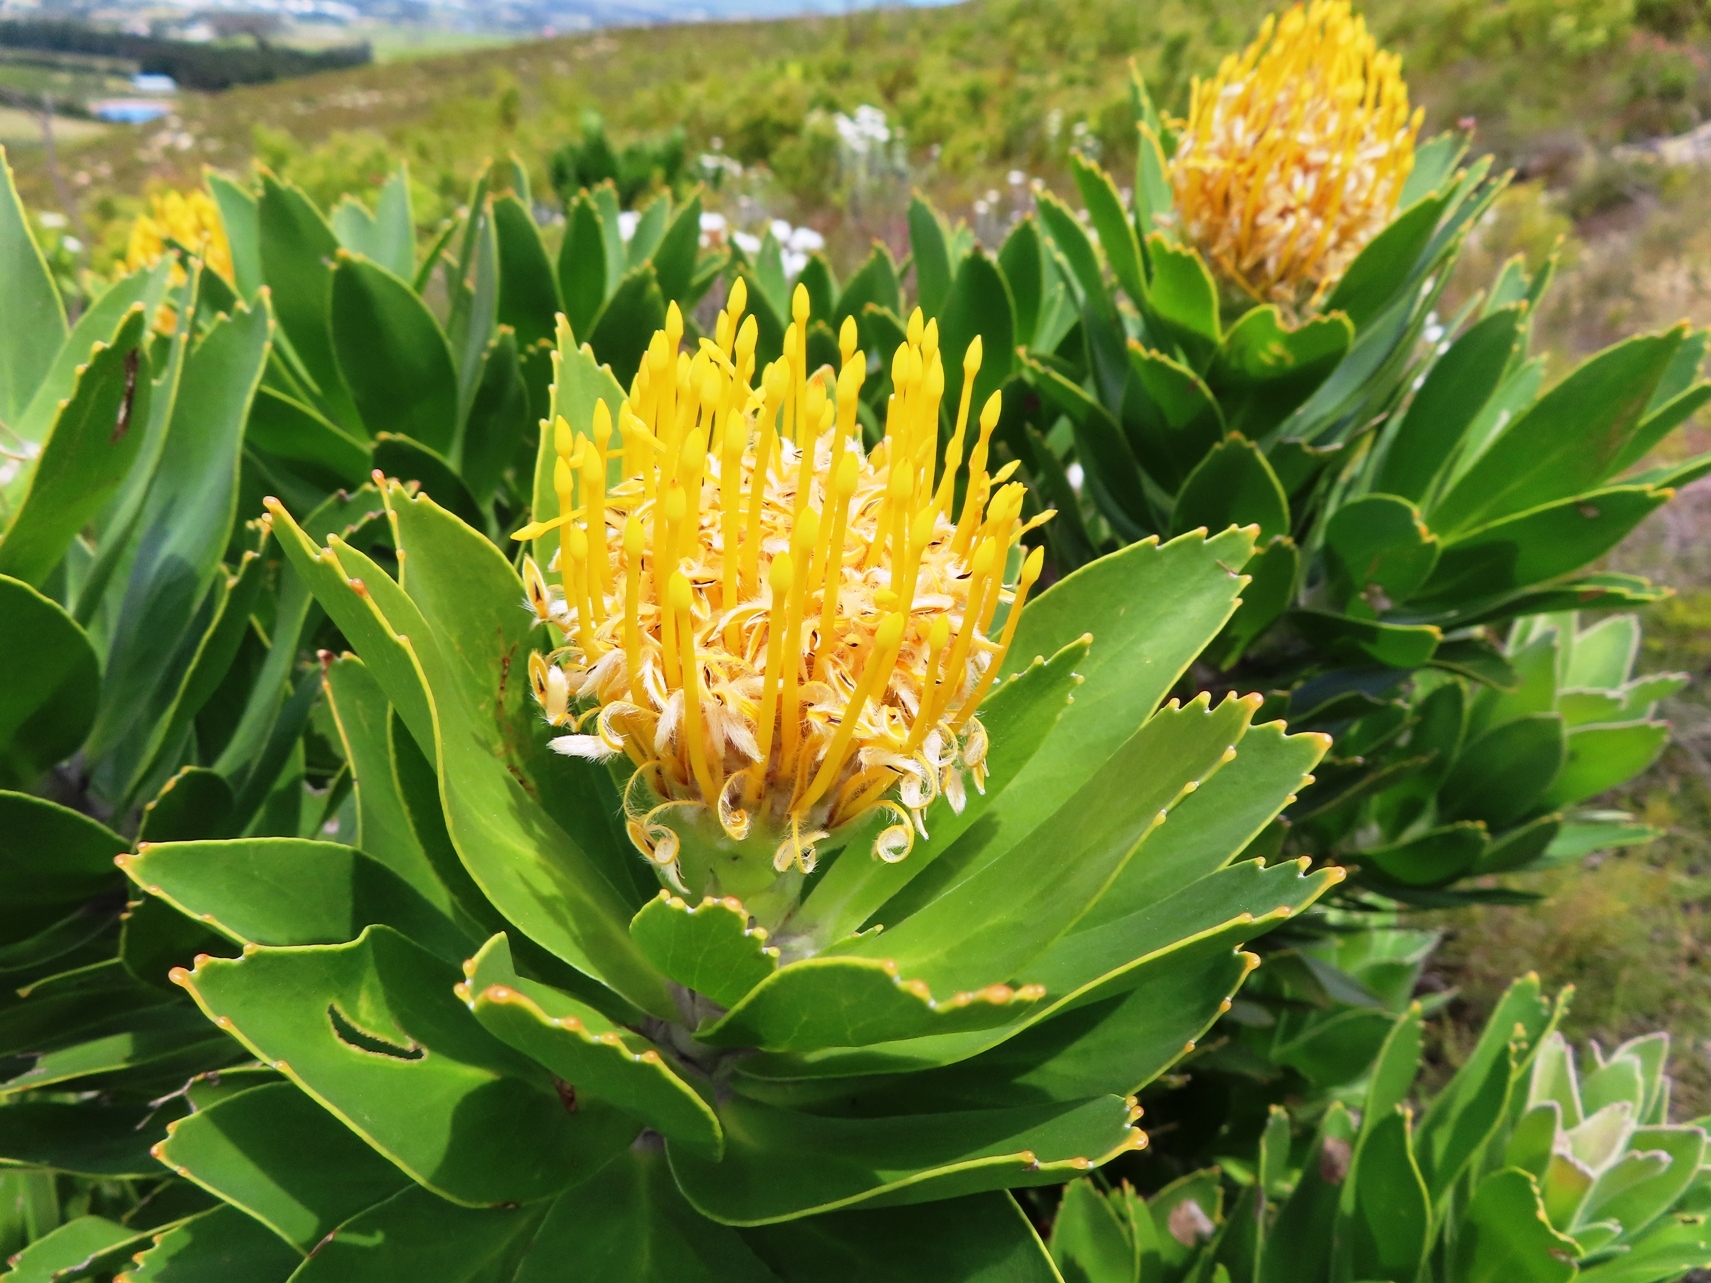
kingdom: Plantae
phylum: Tracheophyta
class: Magnoliopsida
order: Proteales
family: Proteaceae
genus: Leucospermum
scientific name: Leucospermum conocarpodendron
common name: Tree pincushion
